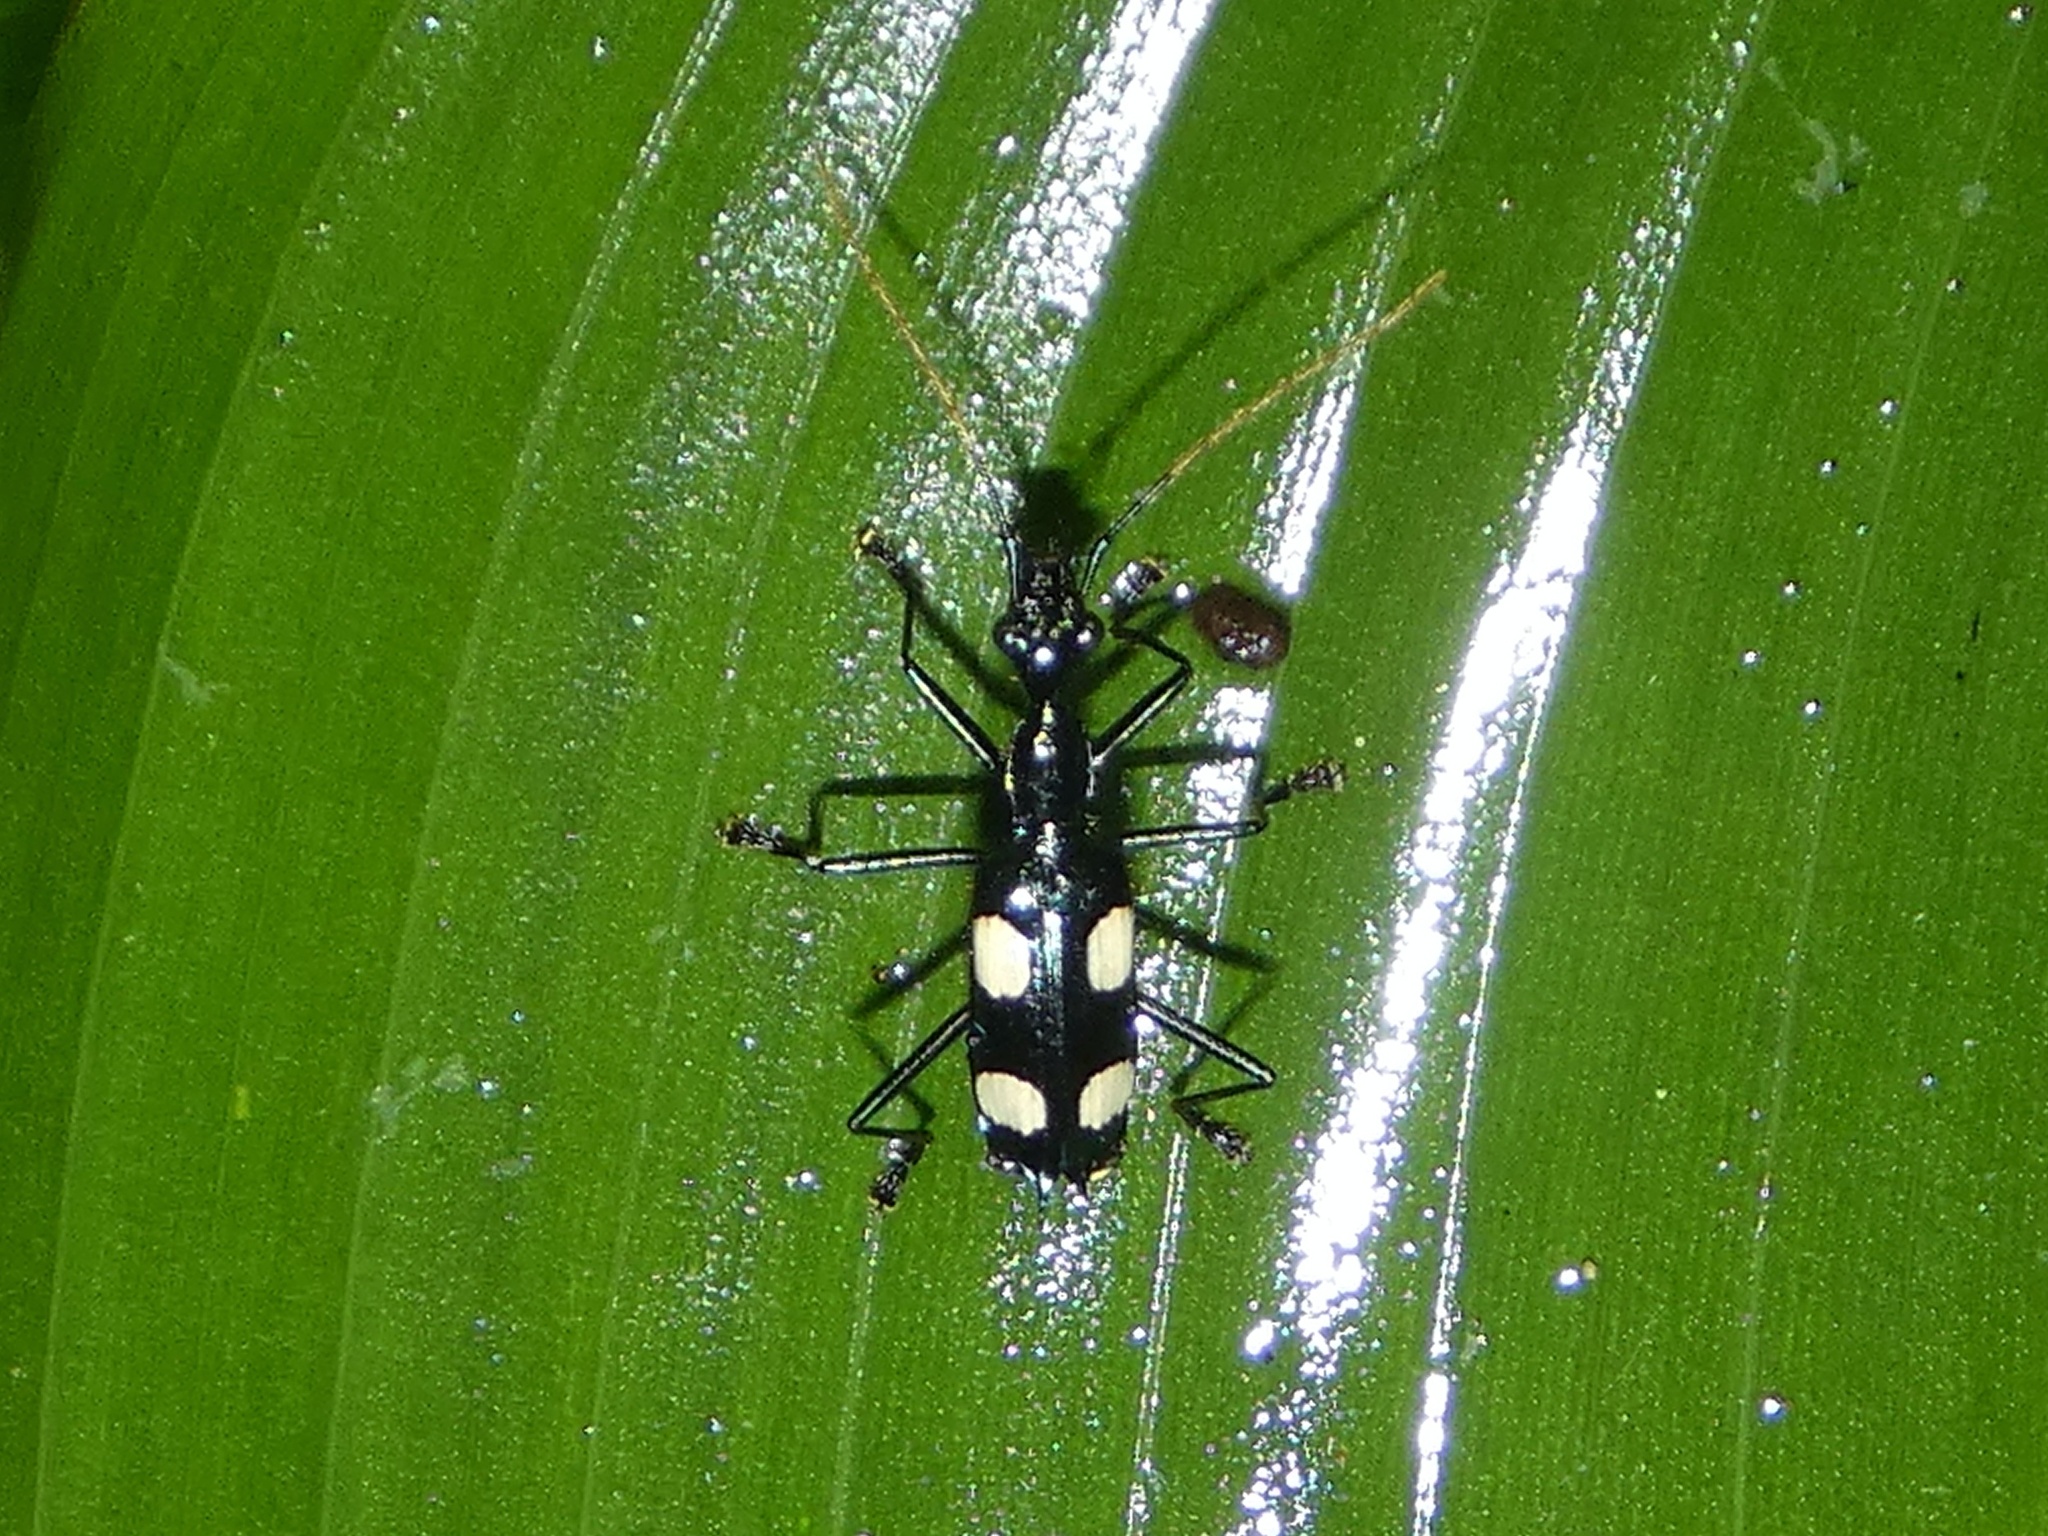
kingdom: Animalia
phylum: Arthropoda
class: Insecta
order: Coleoptera
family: Carabidae
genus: Calophaena
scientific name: Calophaena laevigata
